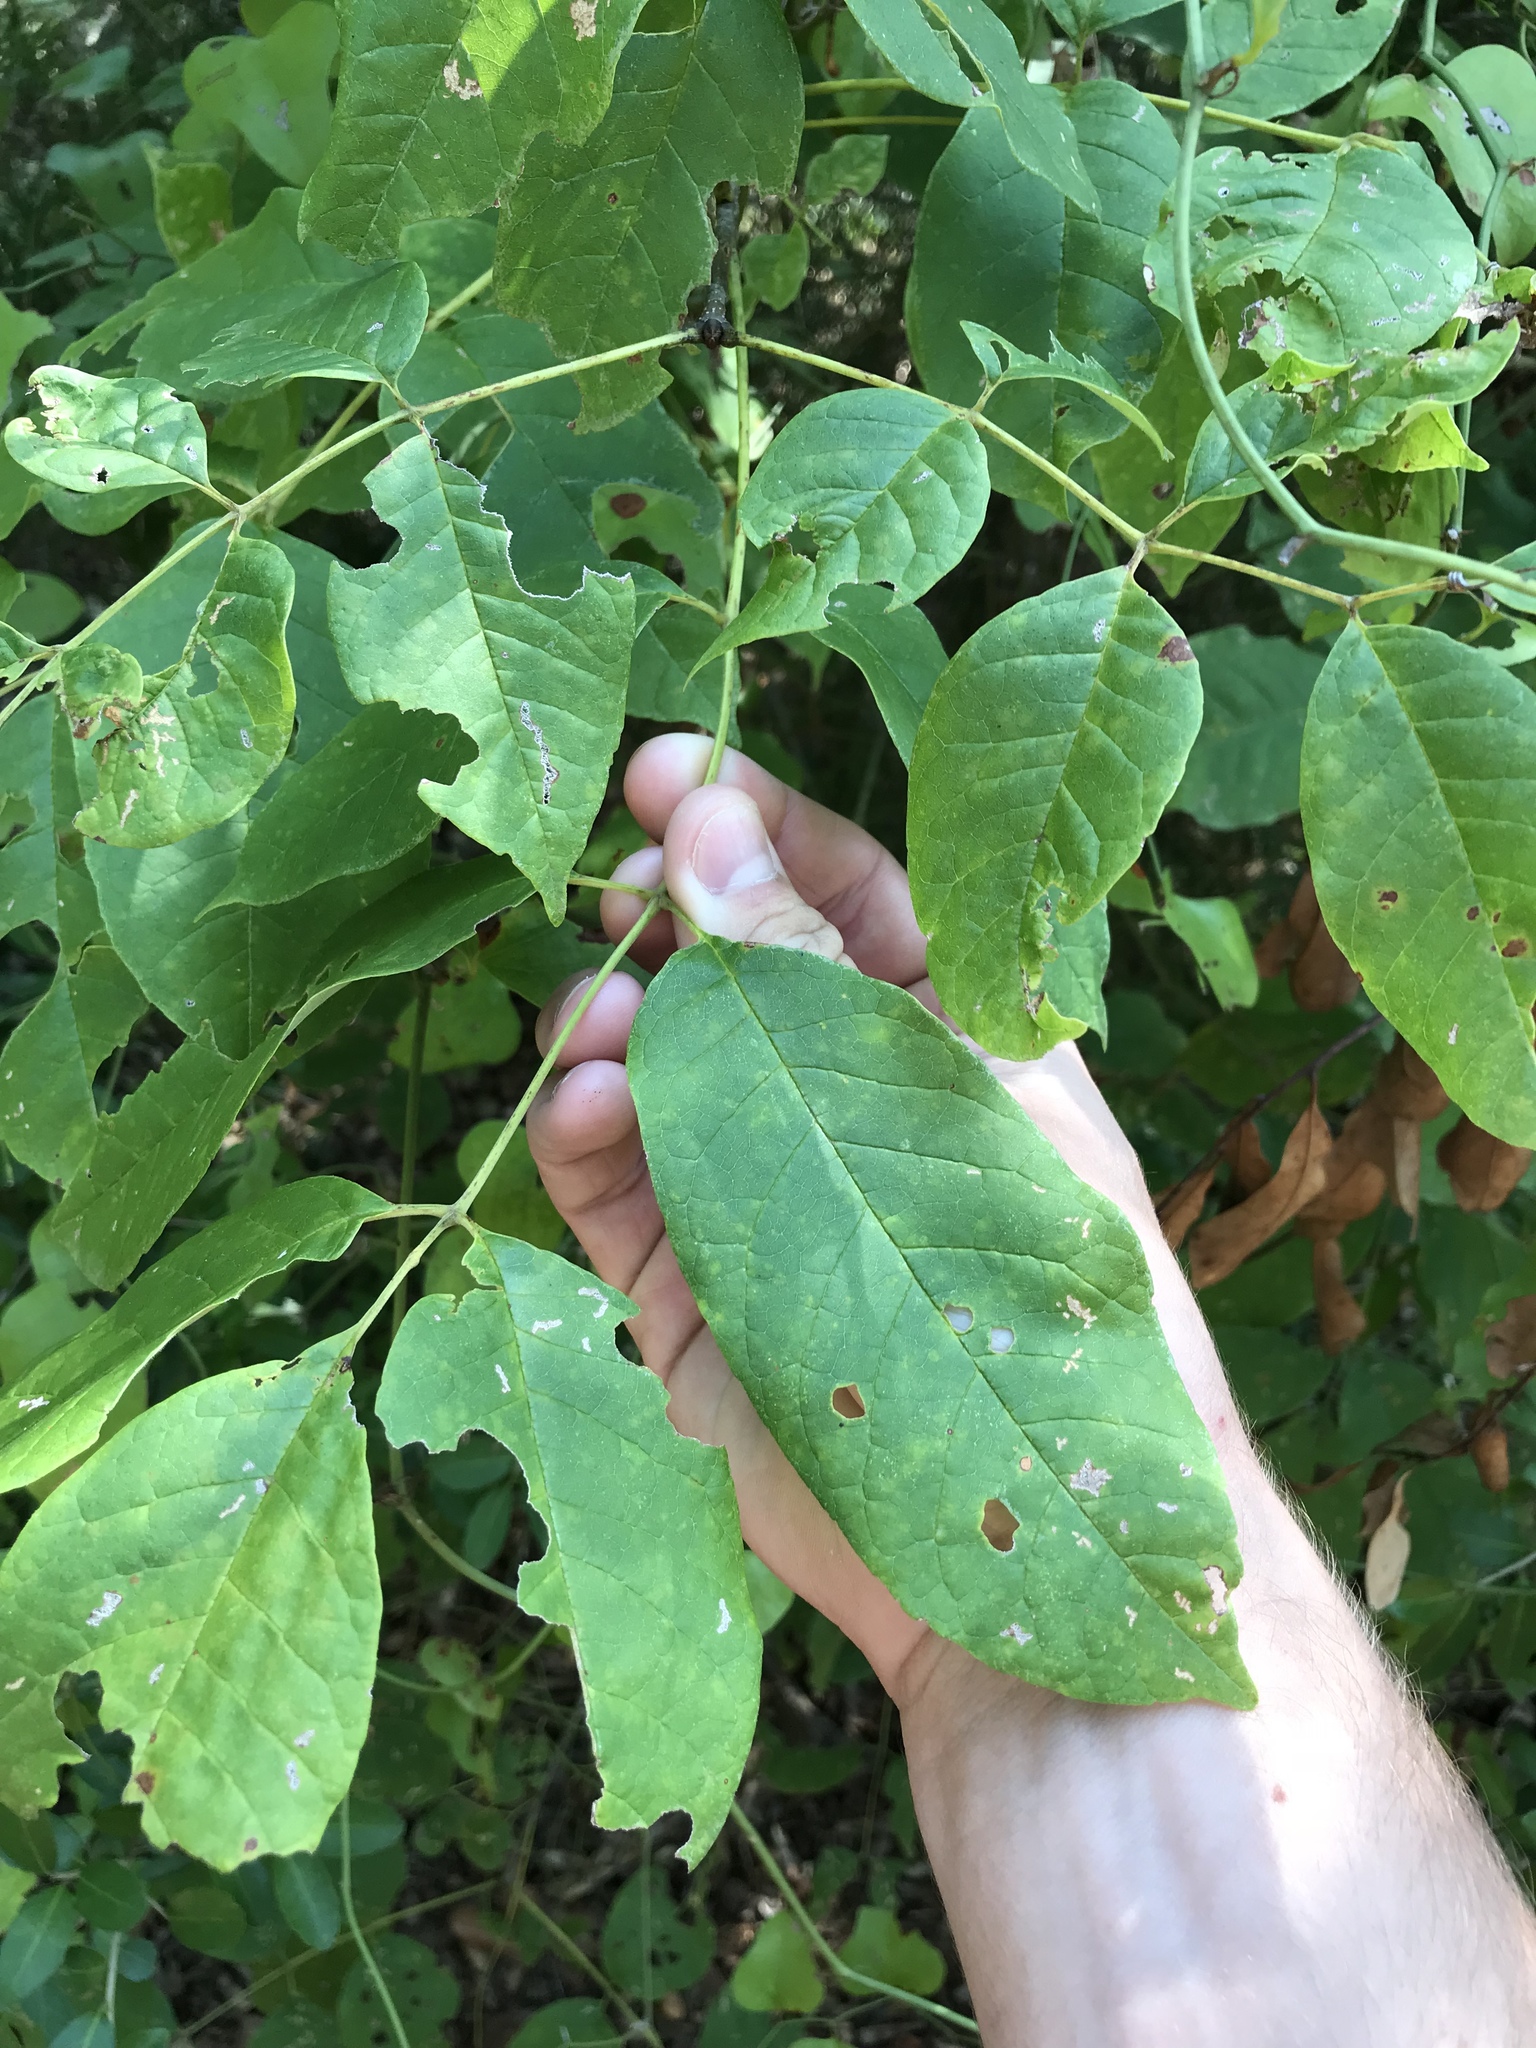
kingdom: Plantae
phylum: Tracheophyta
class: Magnoliopsida
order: Lamiales
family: Oleaceae
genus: Fraxinus
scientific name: Fraxinus americana
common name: White ash
